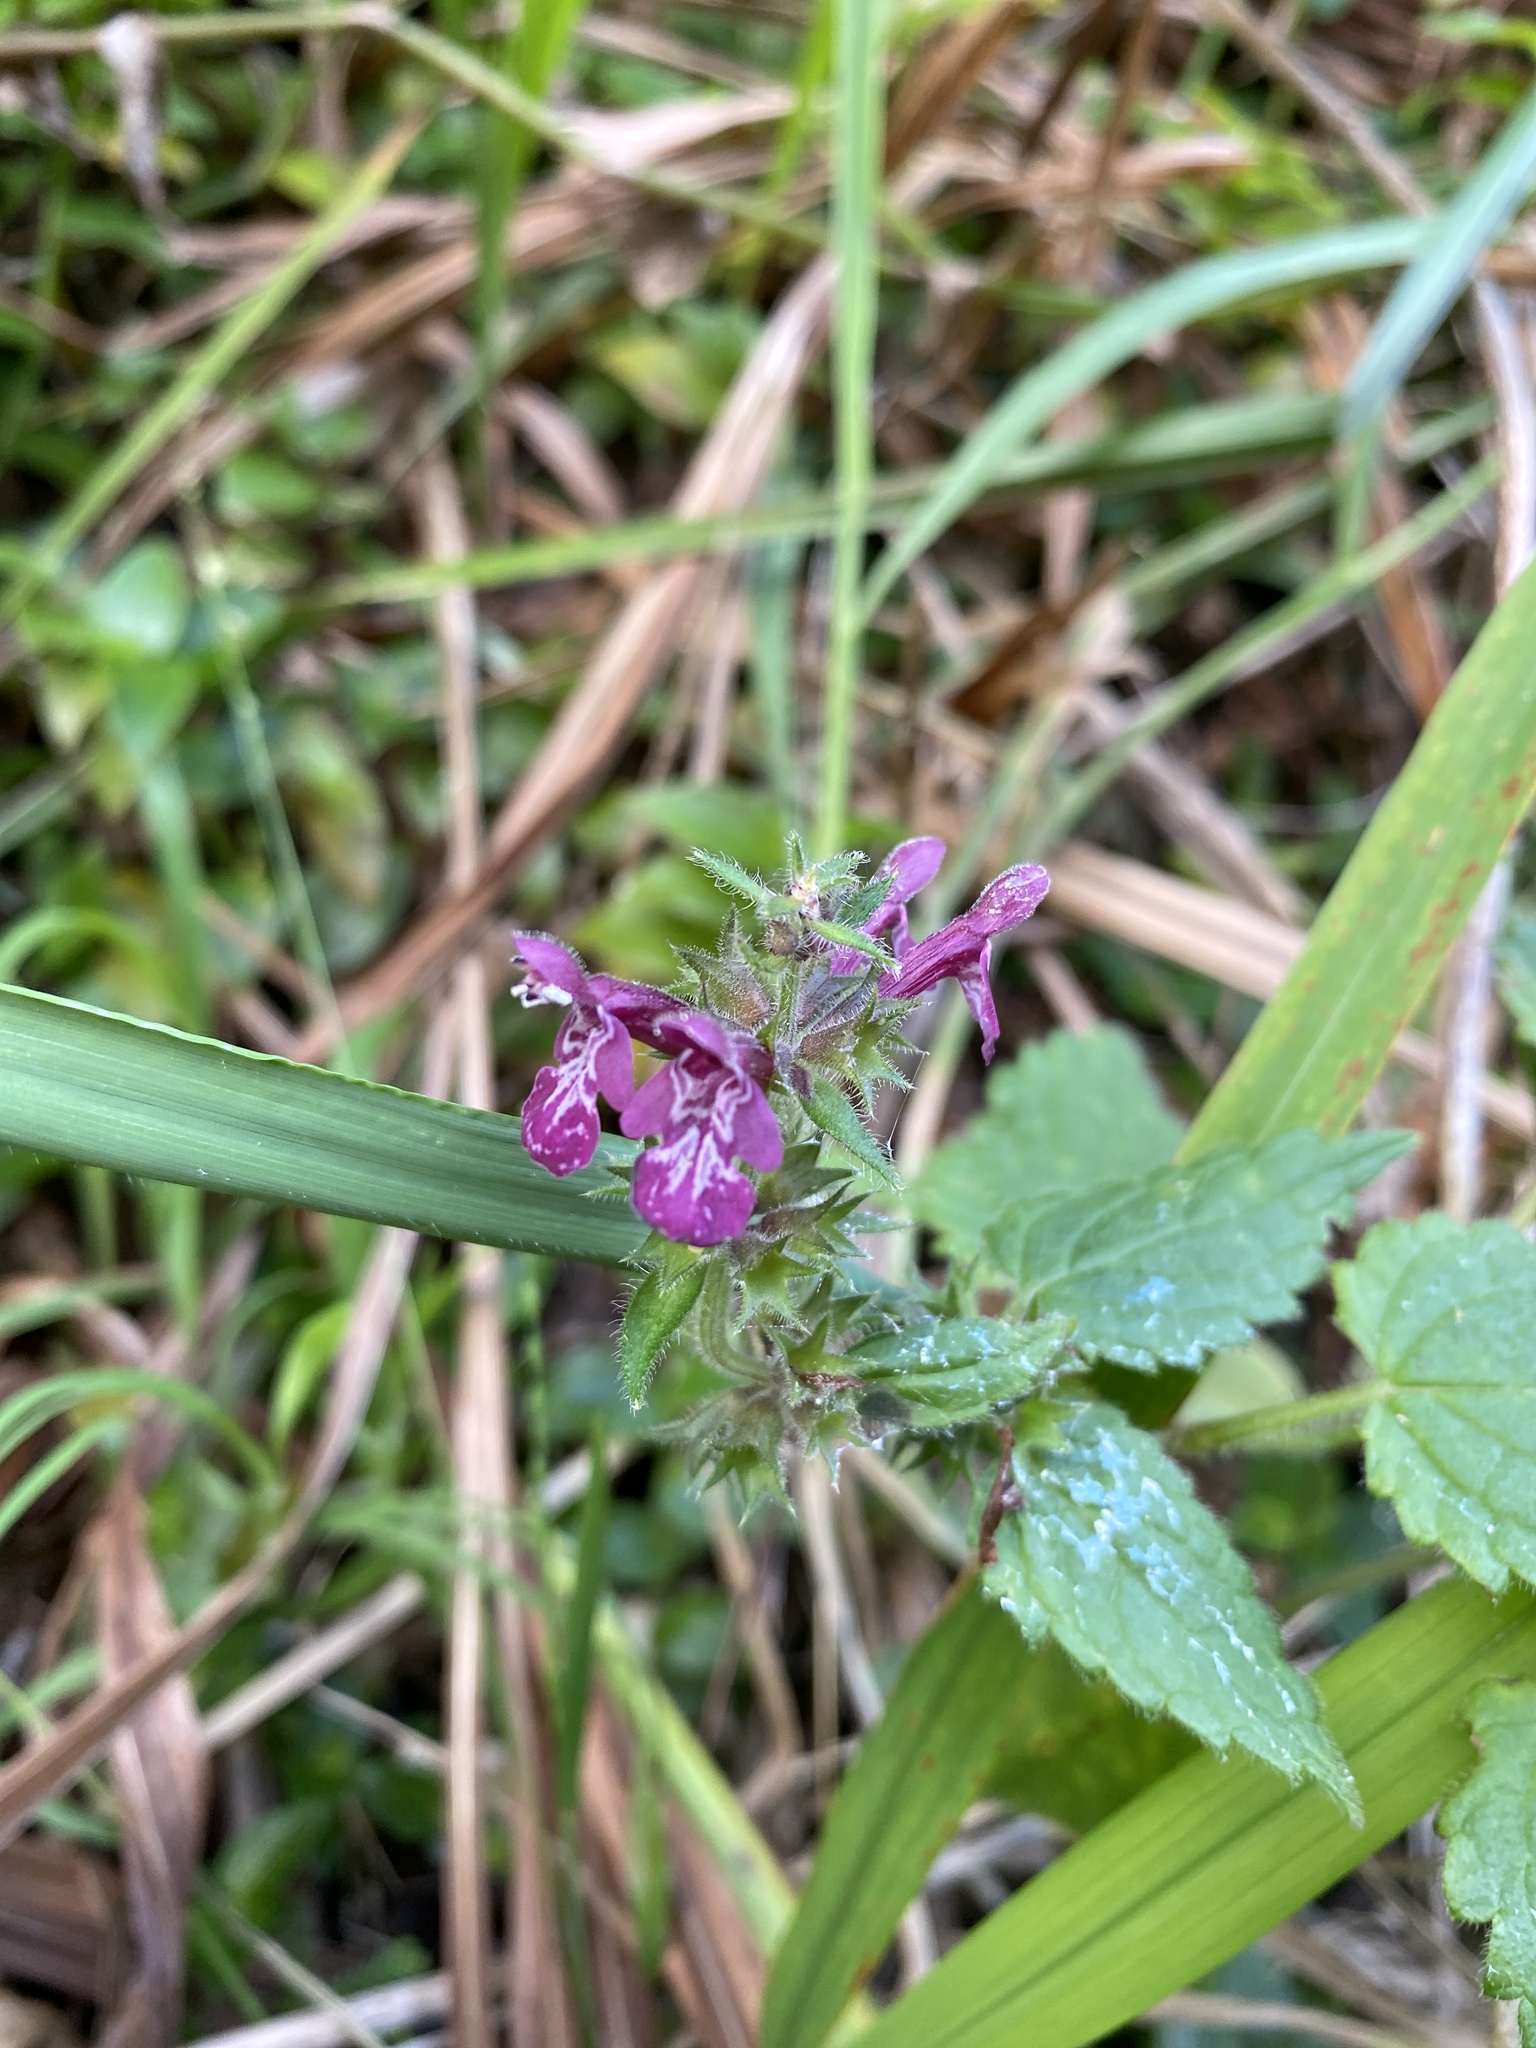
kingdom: Plantae
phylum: Tracheophyta
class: Magnoliopsida
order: Lamiales
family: Lamiaceae
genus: Stachys
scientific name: Stachys sylvatica
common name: Hedge woundwort
